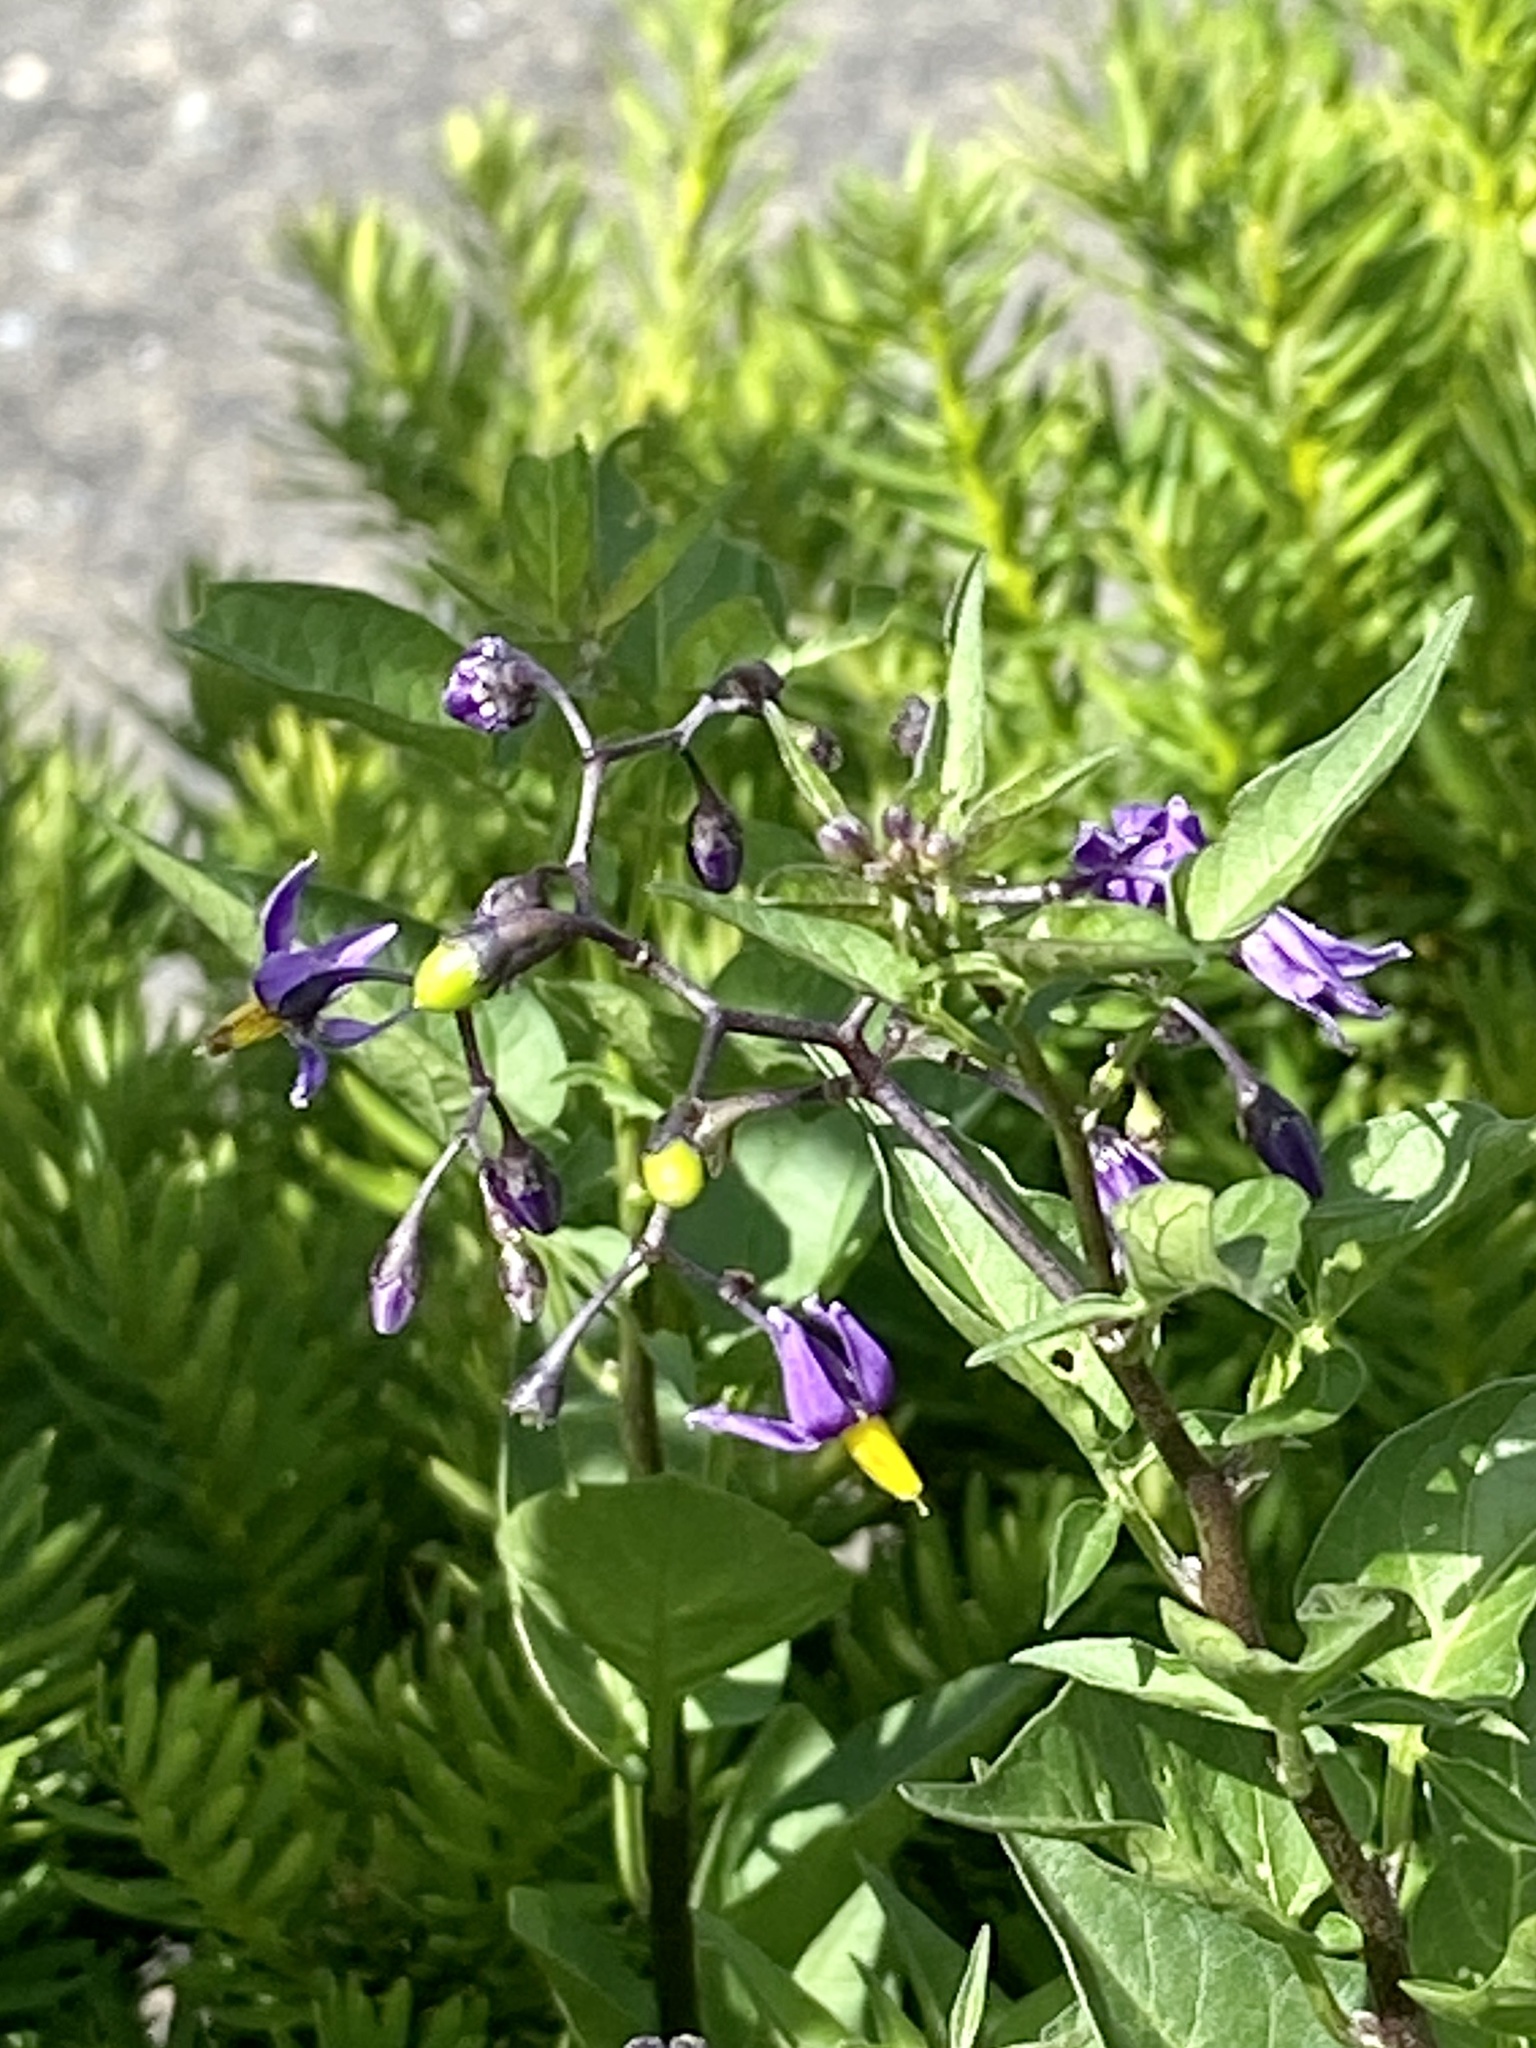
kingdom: Plantae
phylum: Tracheophyta
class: Magnoliopsida
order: Solanales
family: Solanaceae
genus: Solanum
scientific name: Solanum dulcamara
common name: Climbing nightshade
